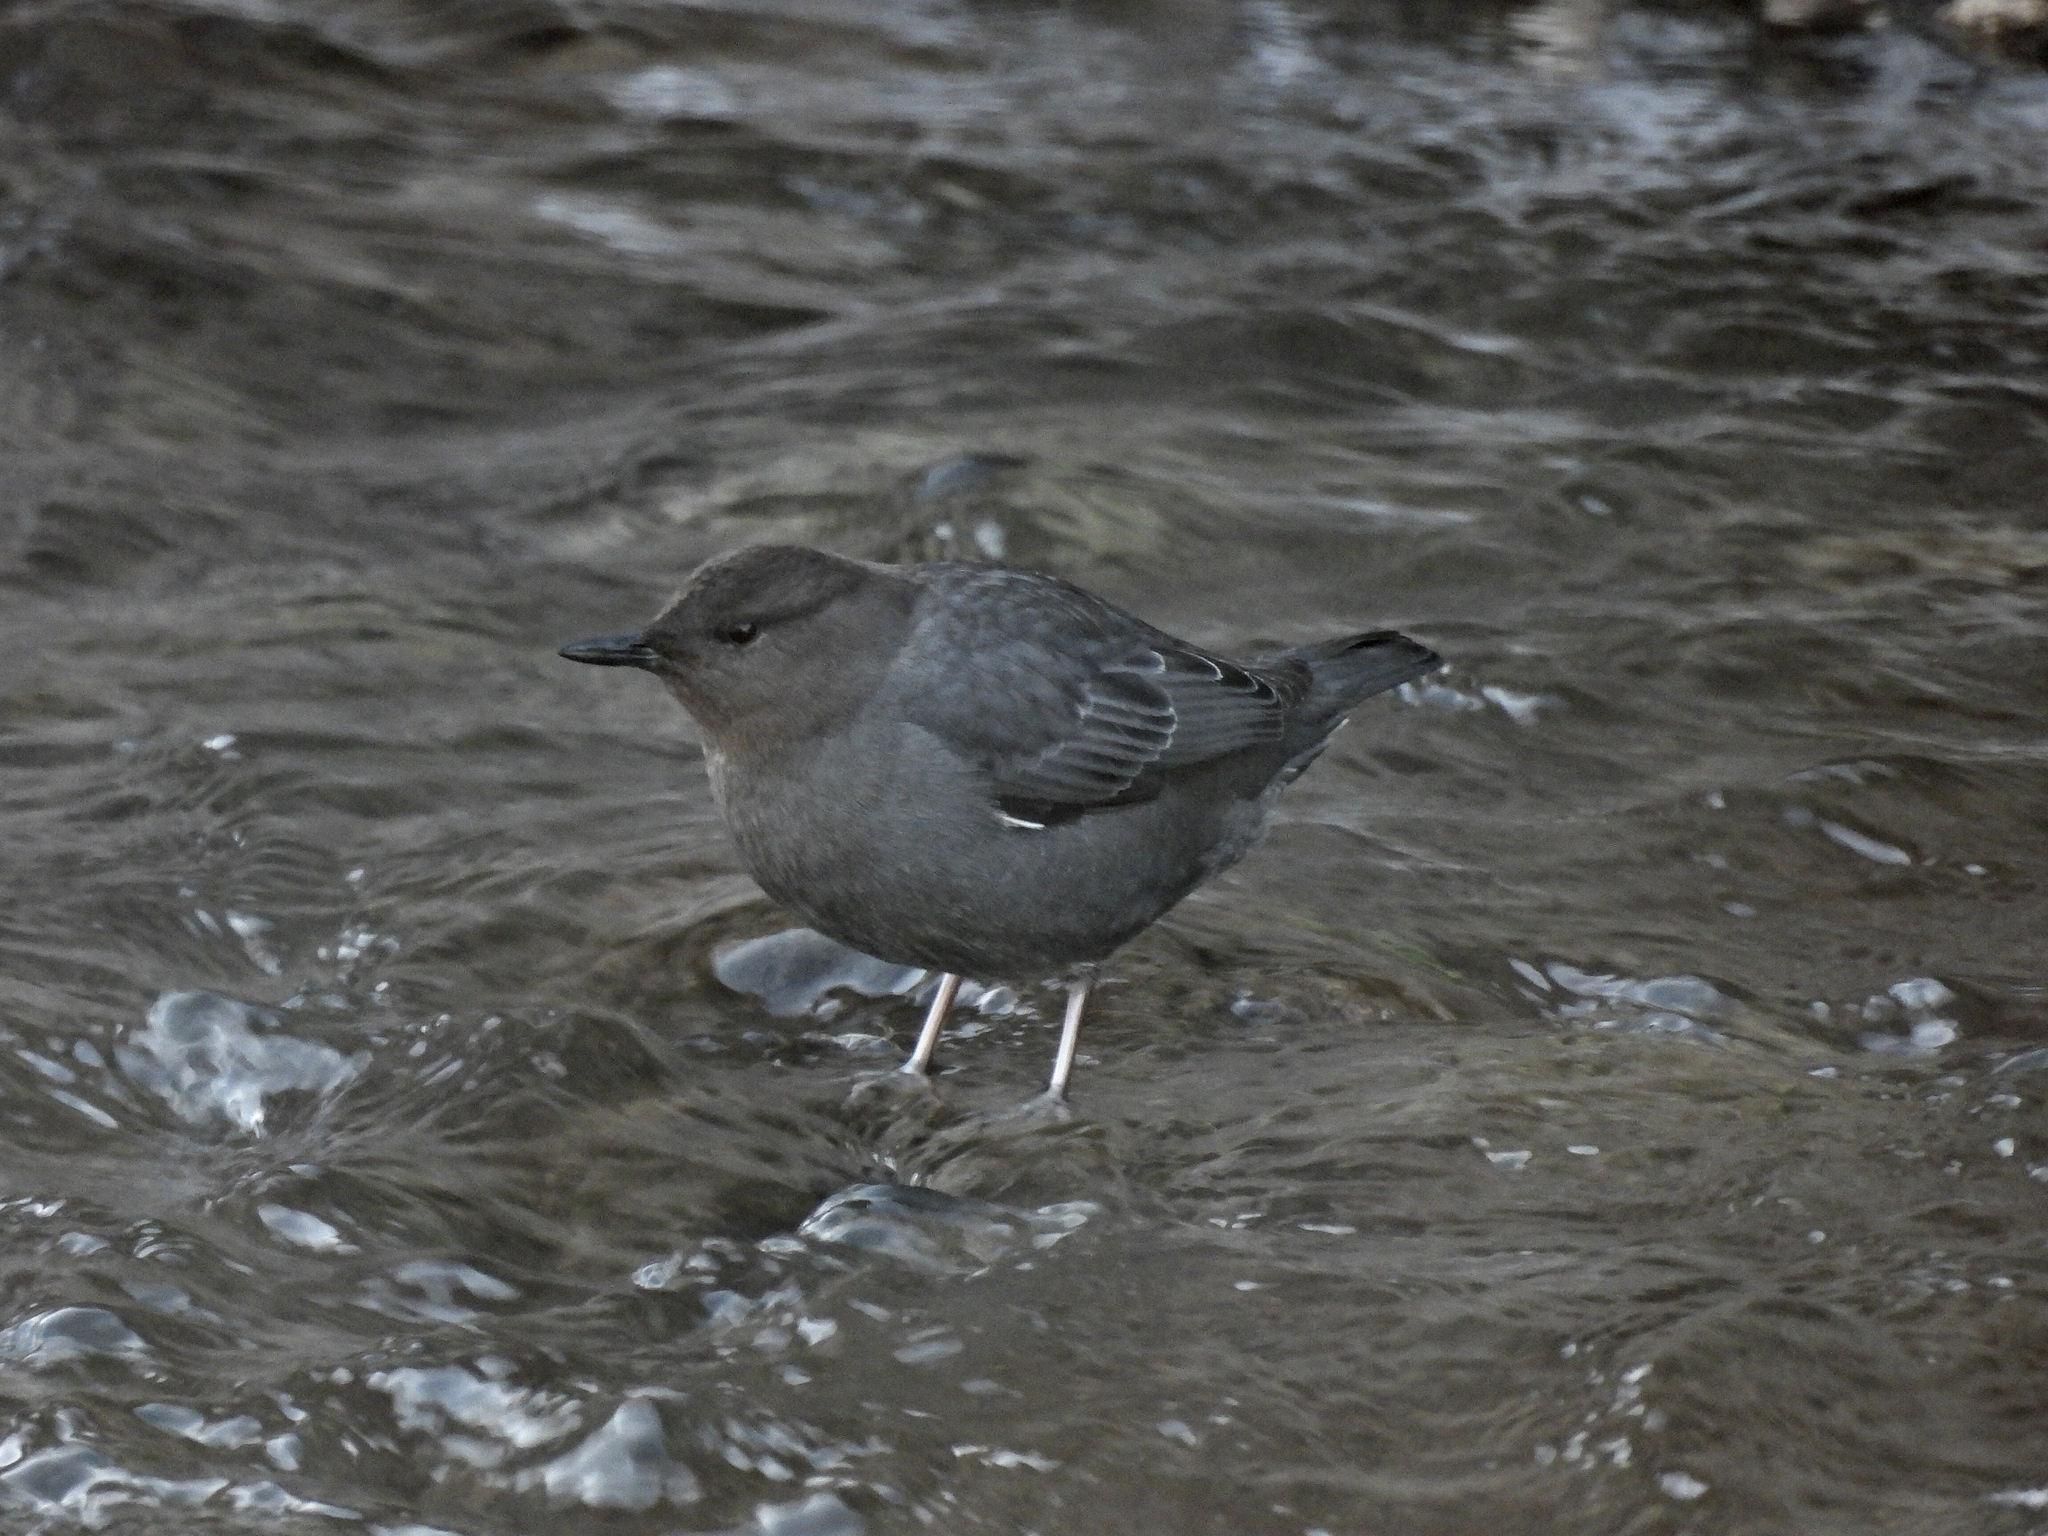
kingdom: Animalia
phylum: Chordata
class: Aves
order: Passeriformes
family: Cinclidae
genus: Cinclus
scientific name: Cinclus mexicanus
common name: American dipper
